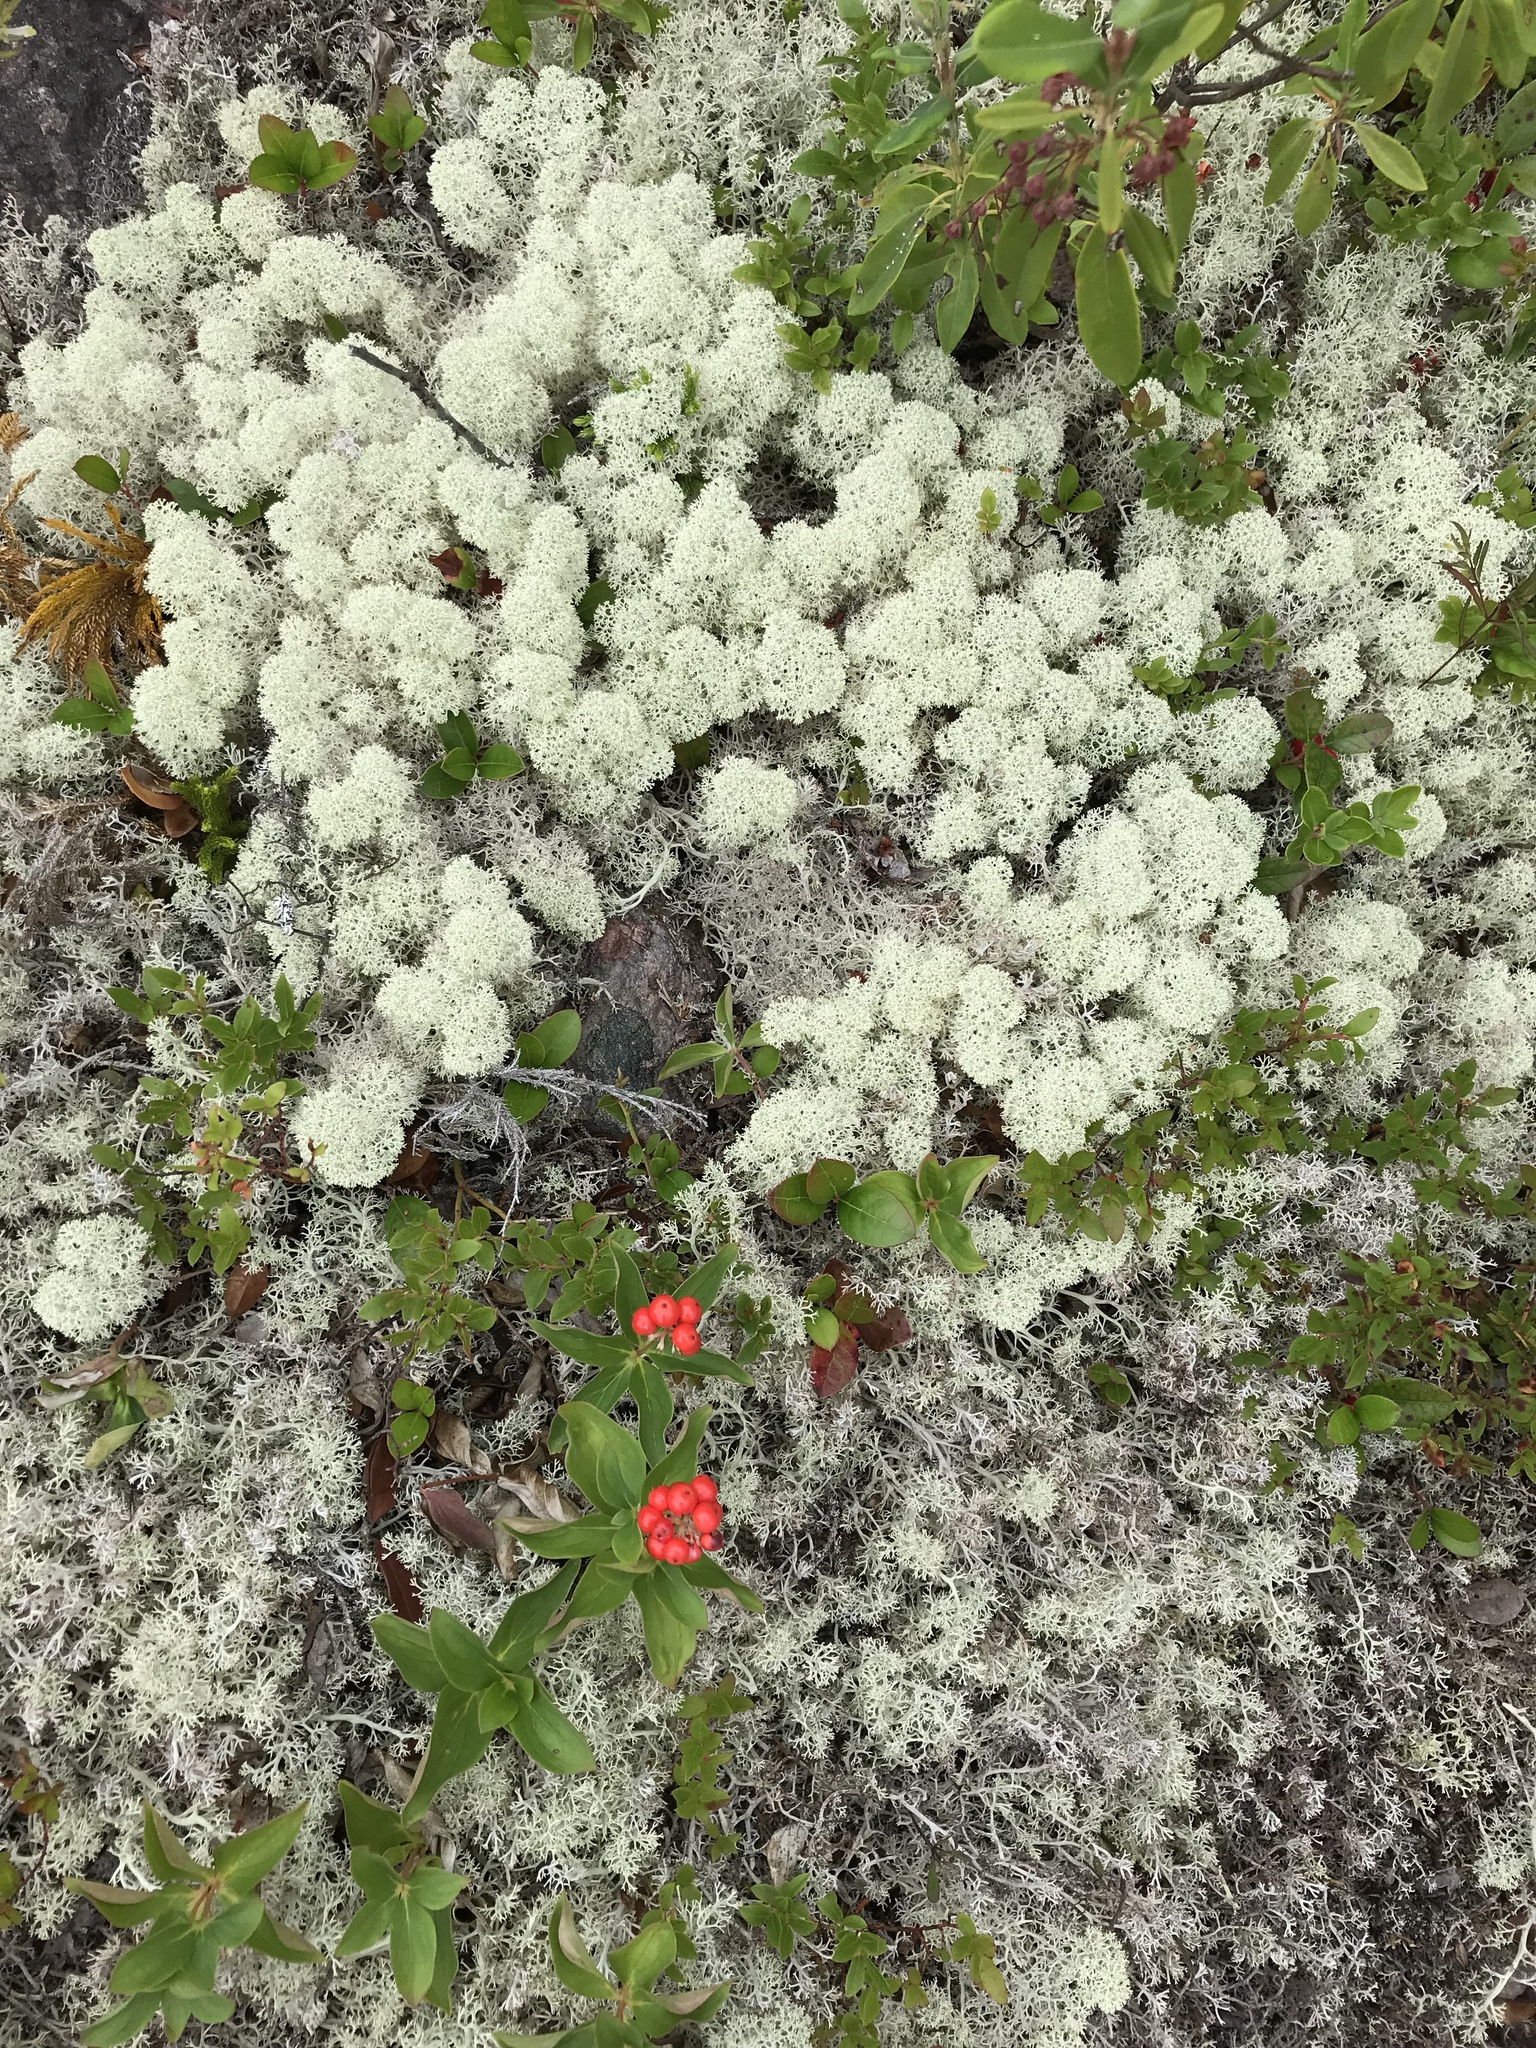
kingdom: Fungi
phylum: Ascomycota
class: Lecanoromycetes
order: Lecanorales
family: Cladoniaceae
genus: Cladonia
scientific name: Cladonia stellaris
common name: Star-tipped reindeer lichen
